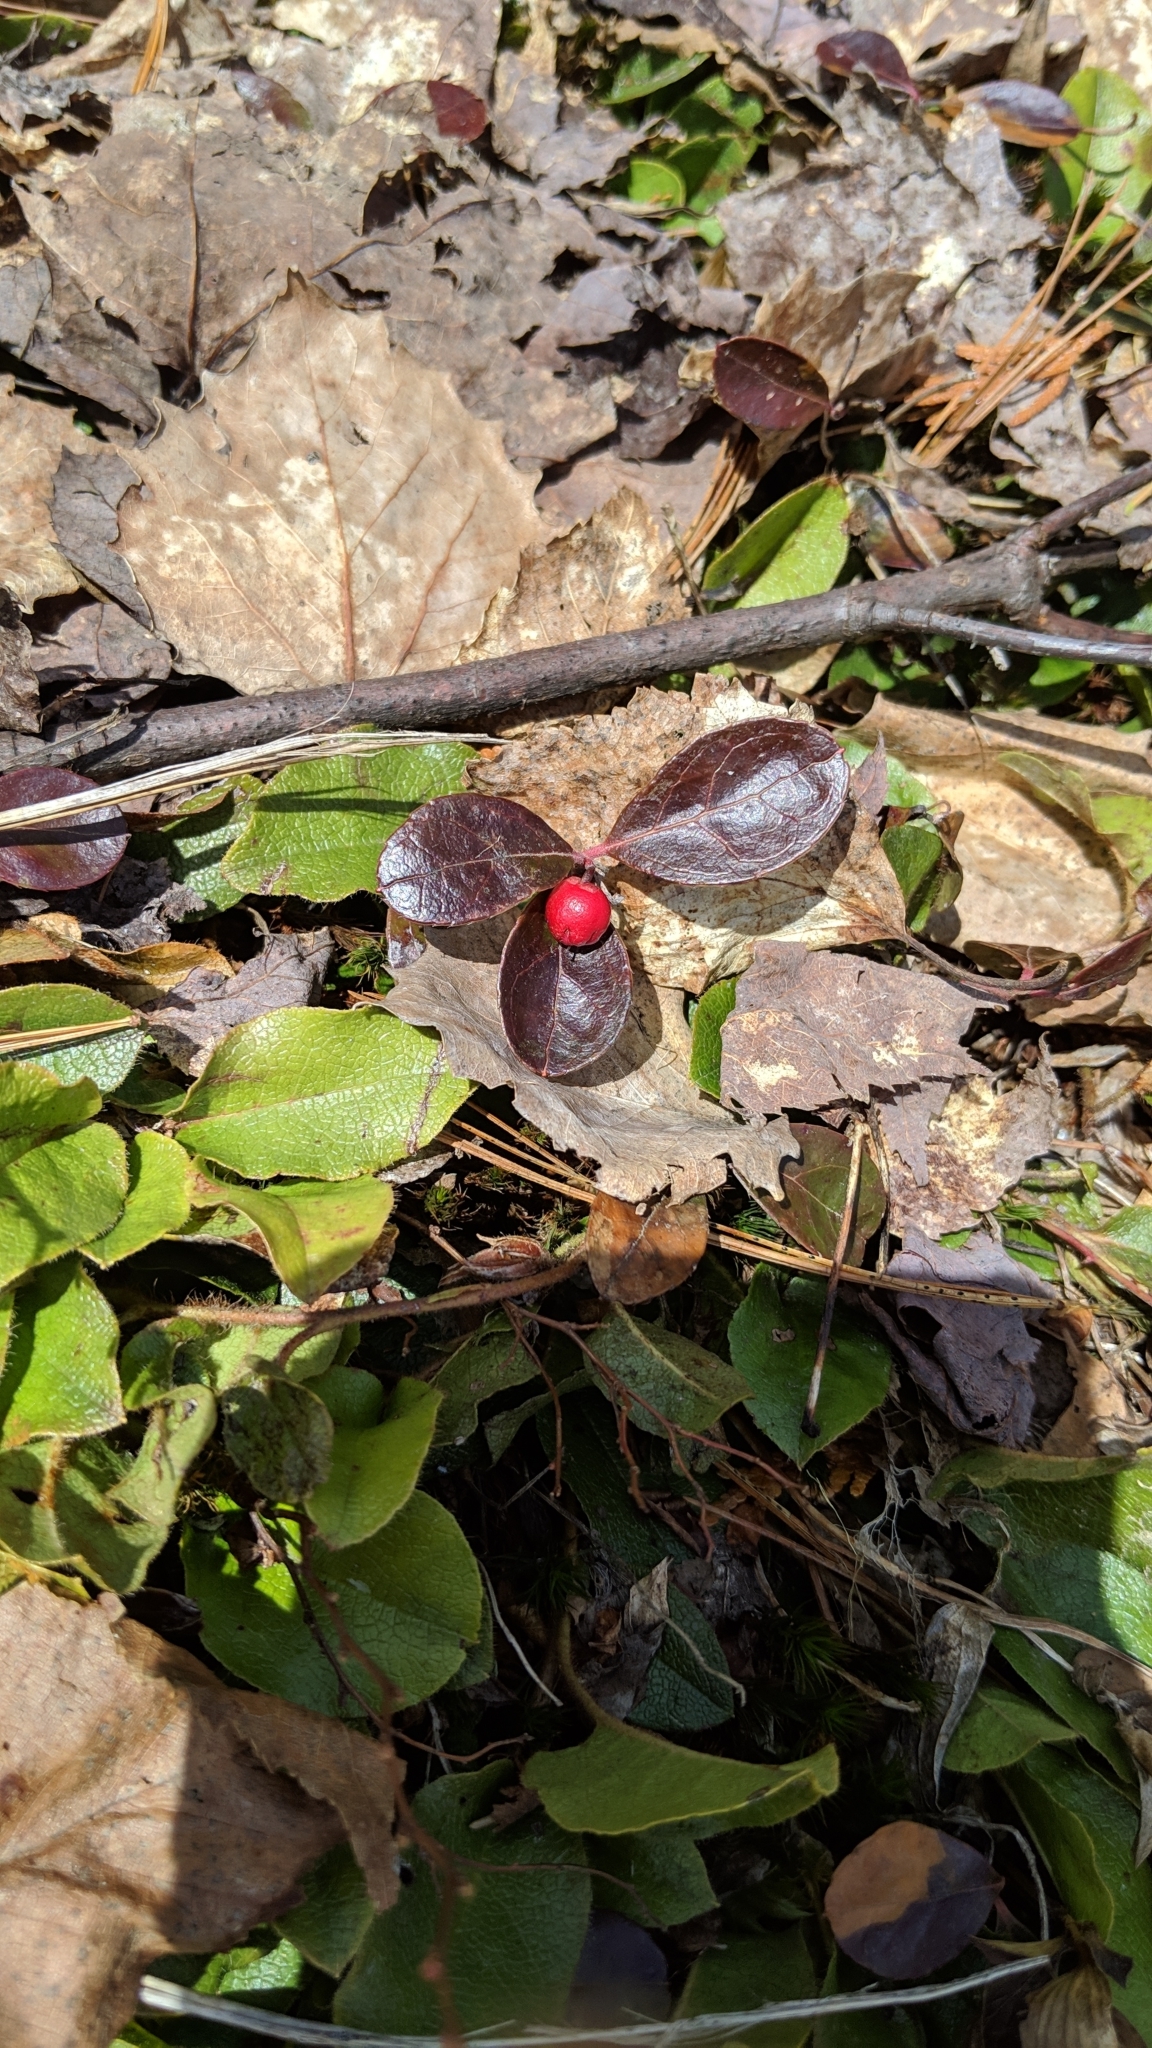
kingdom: Plantae
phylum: Tracheophyta
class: Magnoliopsida
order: Ericales
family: Ericaceae
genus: Gaultheria
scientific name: Gaultheria procumbens
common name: Checkerberry
